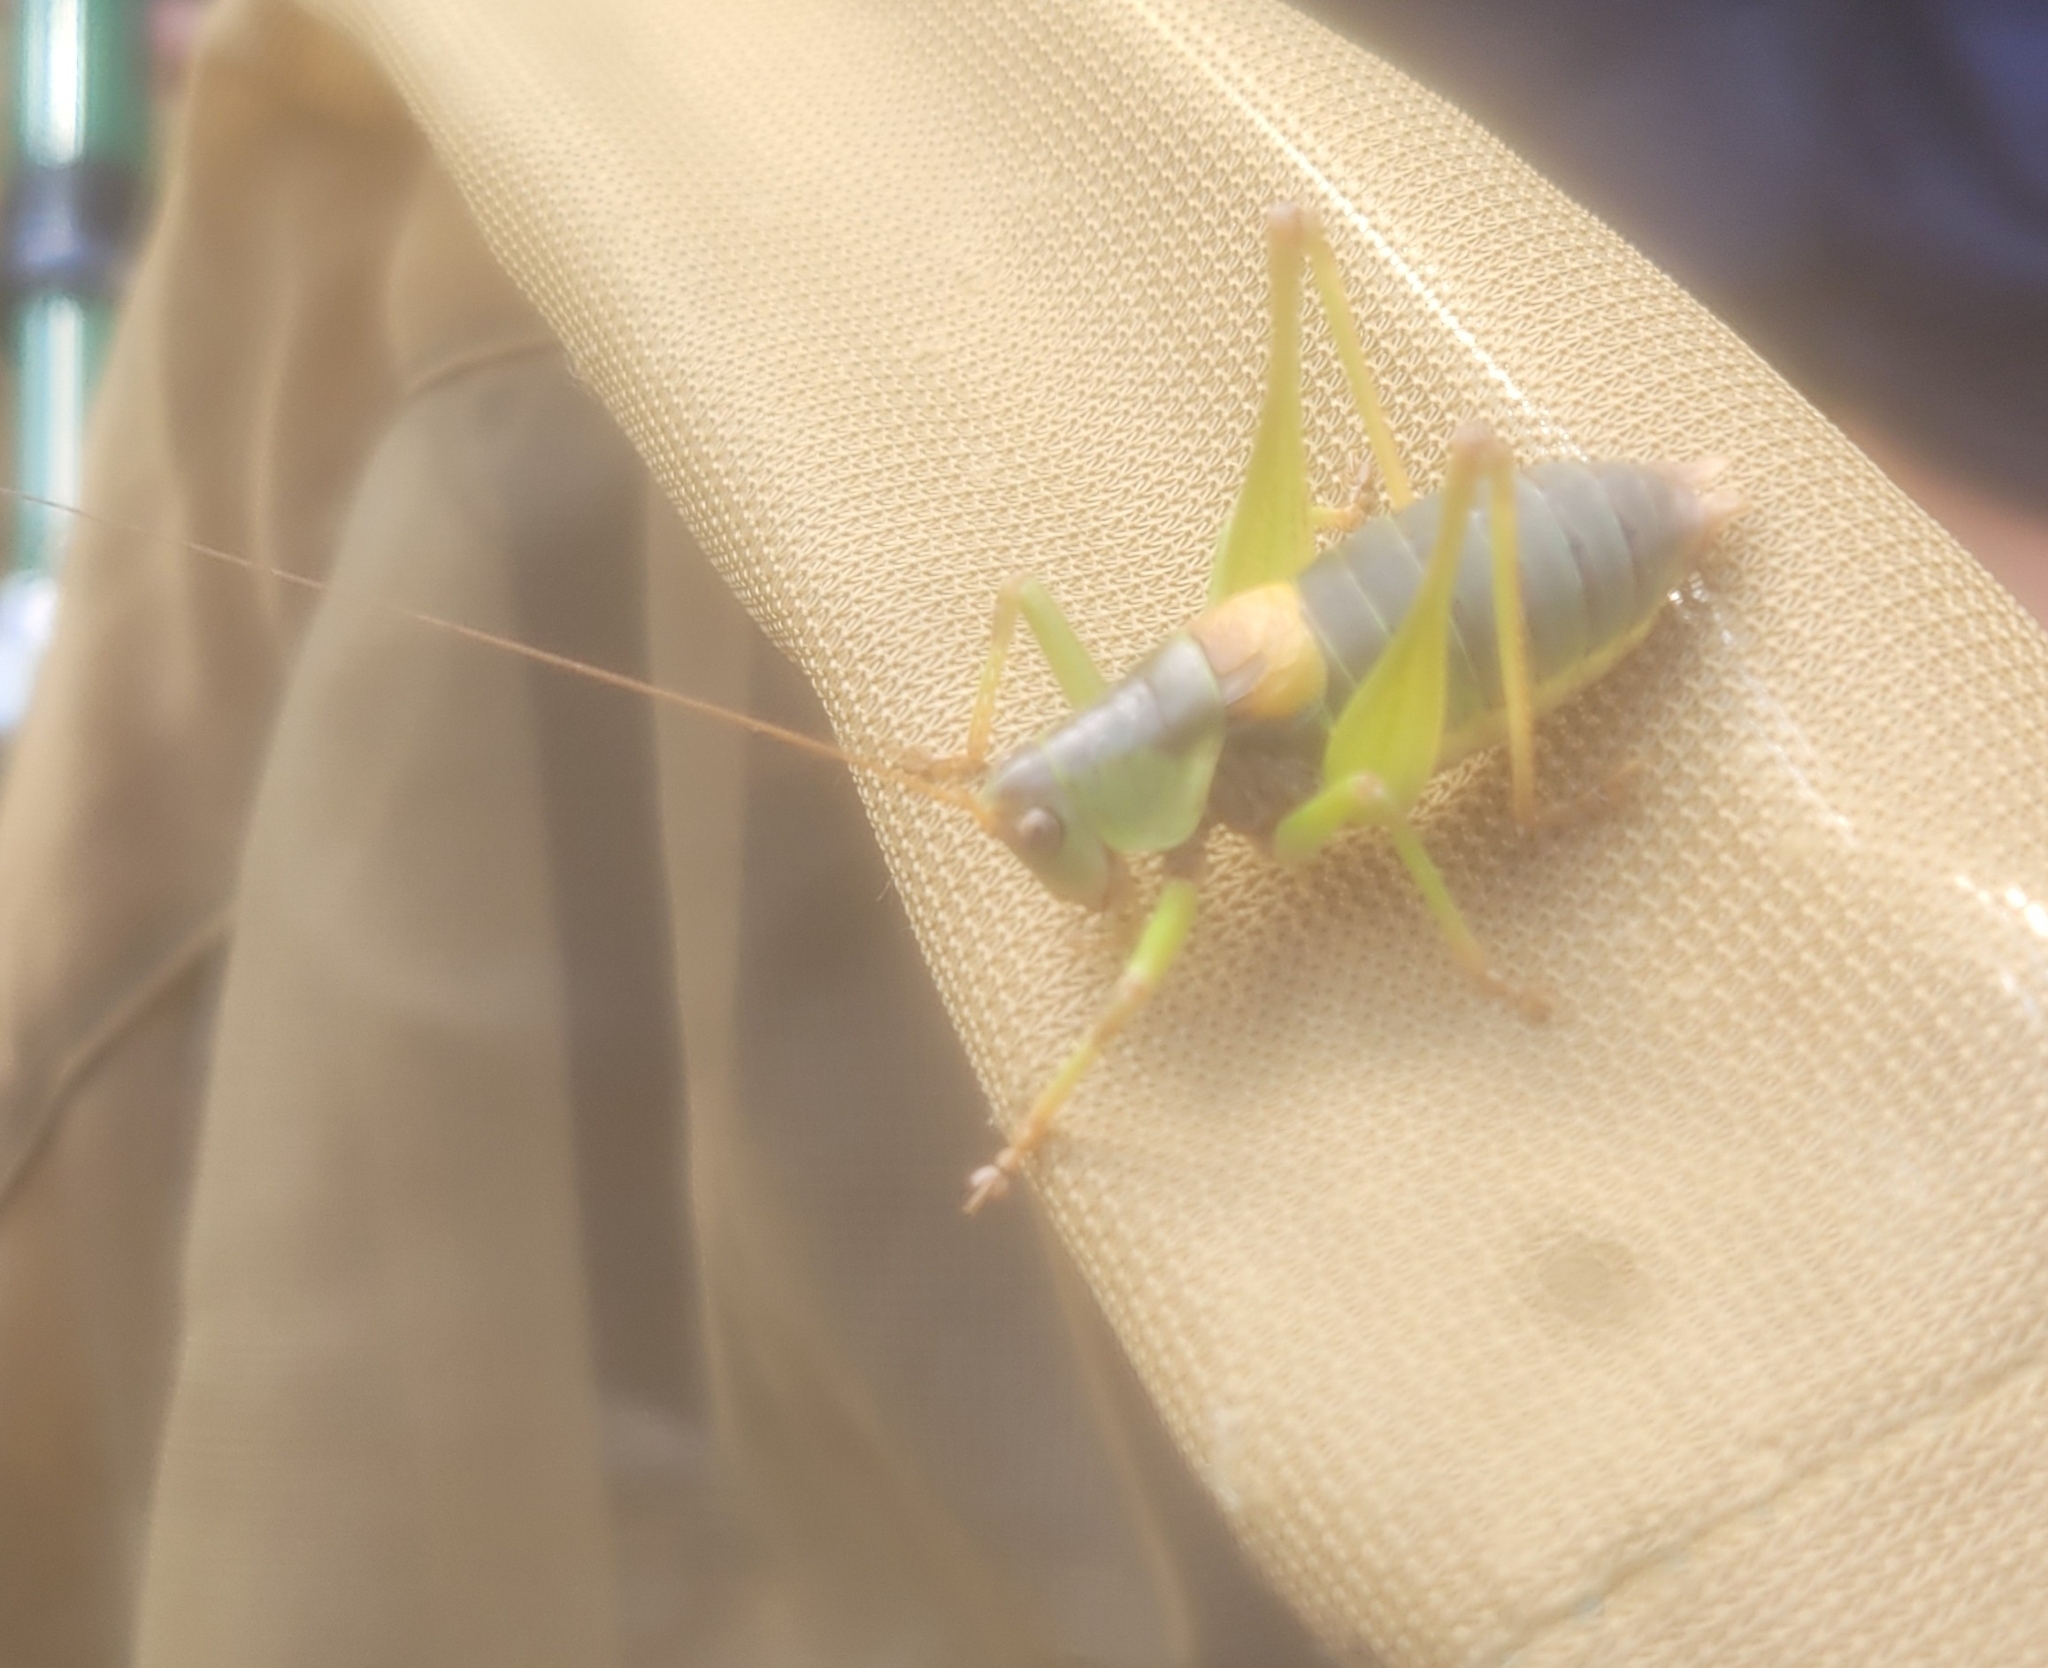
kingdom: Animalia
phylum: Arthropoda
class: Insecta
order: Orthoptera
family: Tettigoniidae
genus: Antaxius
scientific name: Antaxius sorrezensis
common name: French mountain bush-cricket
